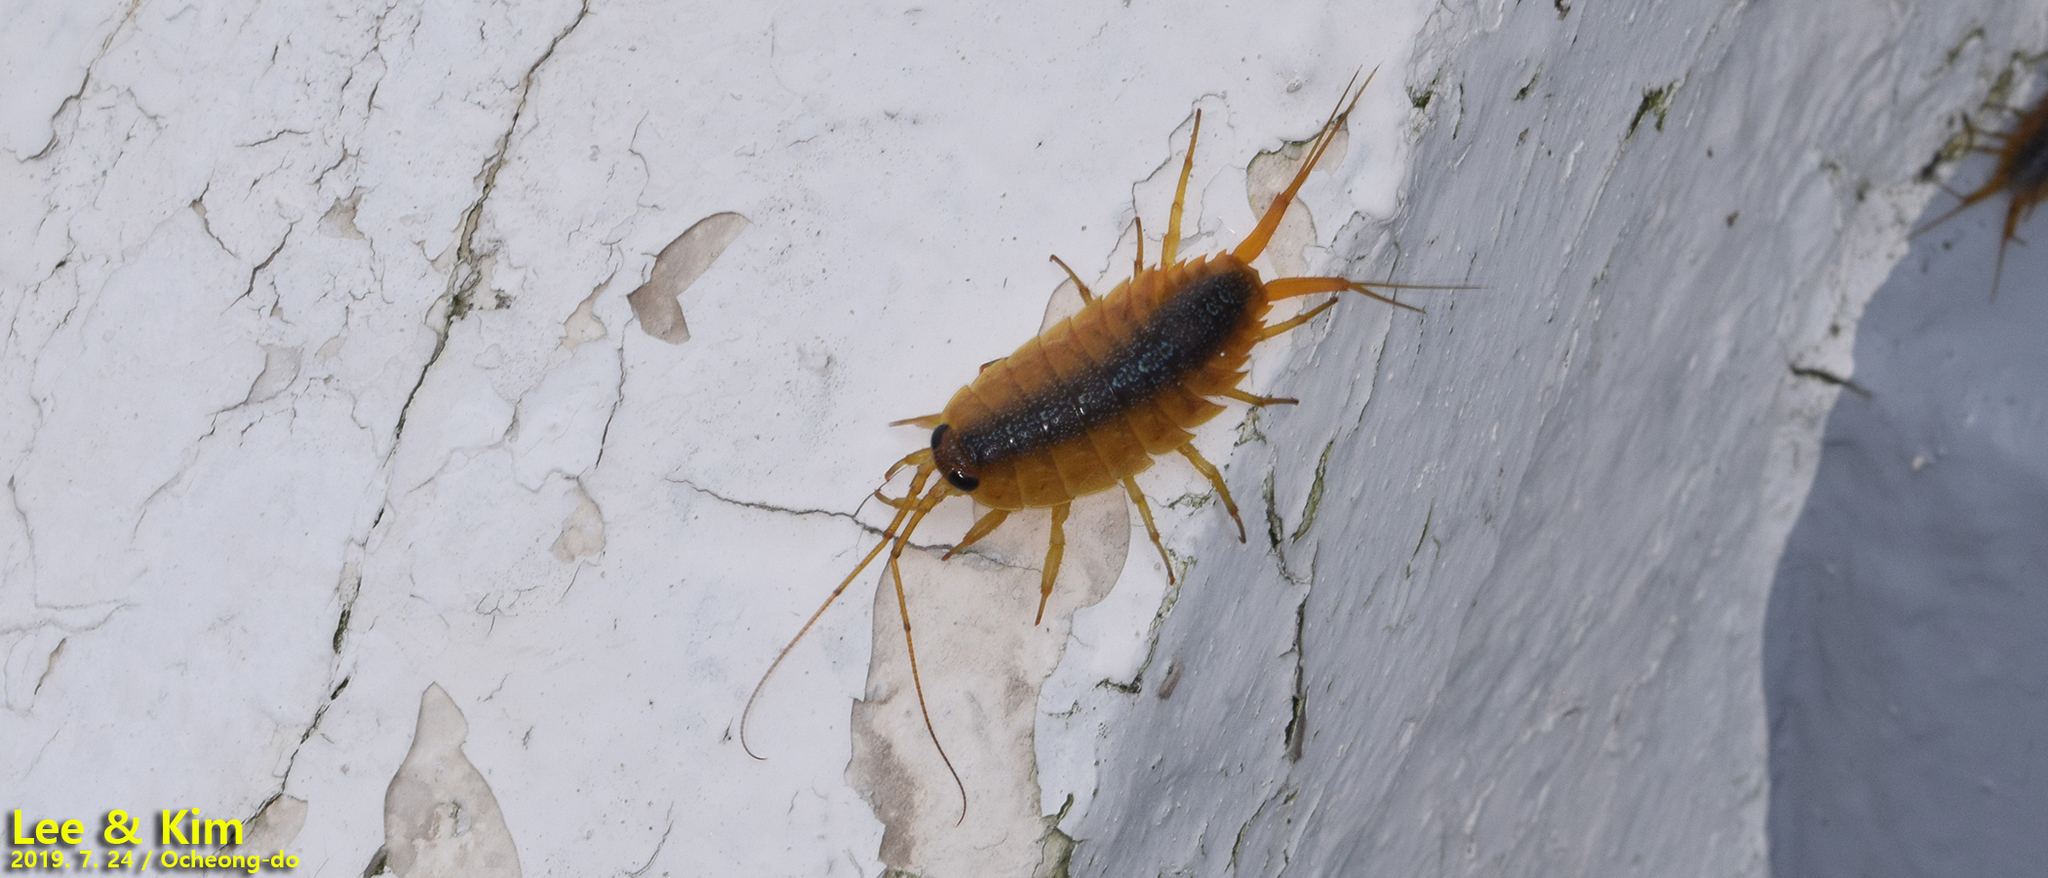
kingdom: Animalia
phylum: Arthropoda
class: Malacostraca
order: Isopoda
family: Ligiidae
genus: Ligia
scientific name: Ligia exotica
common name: Wharf roach
